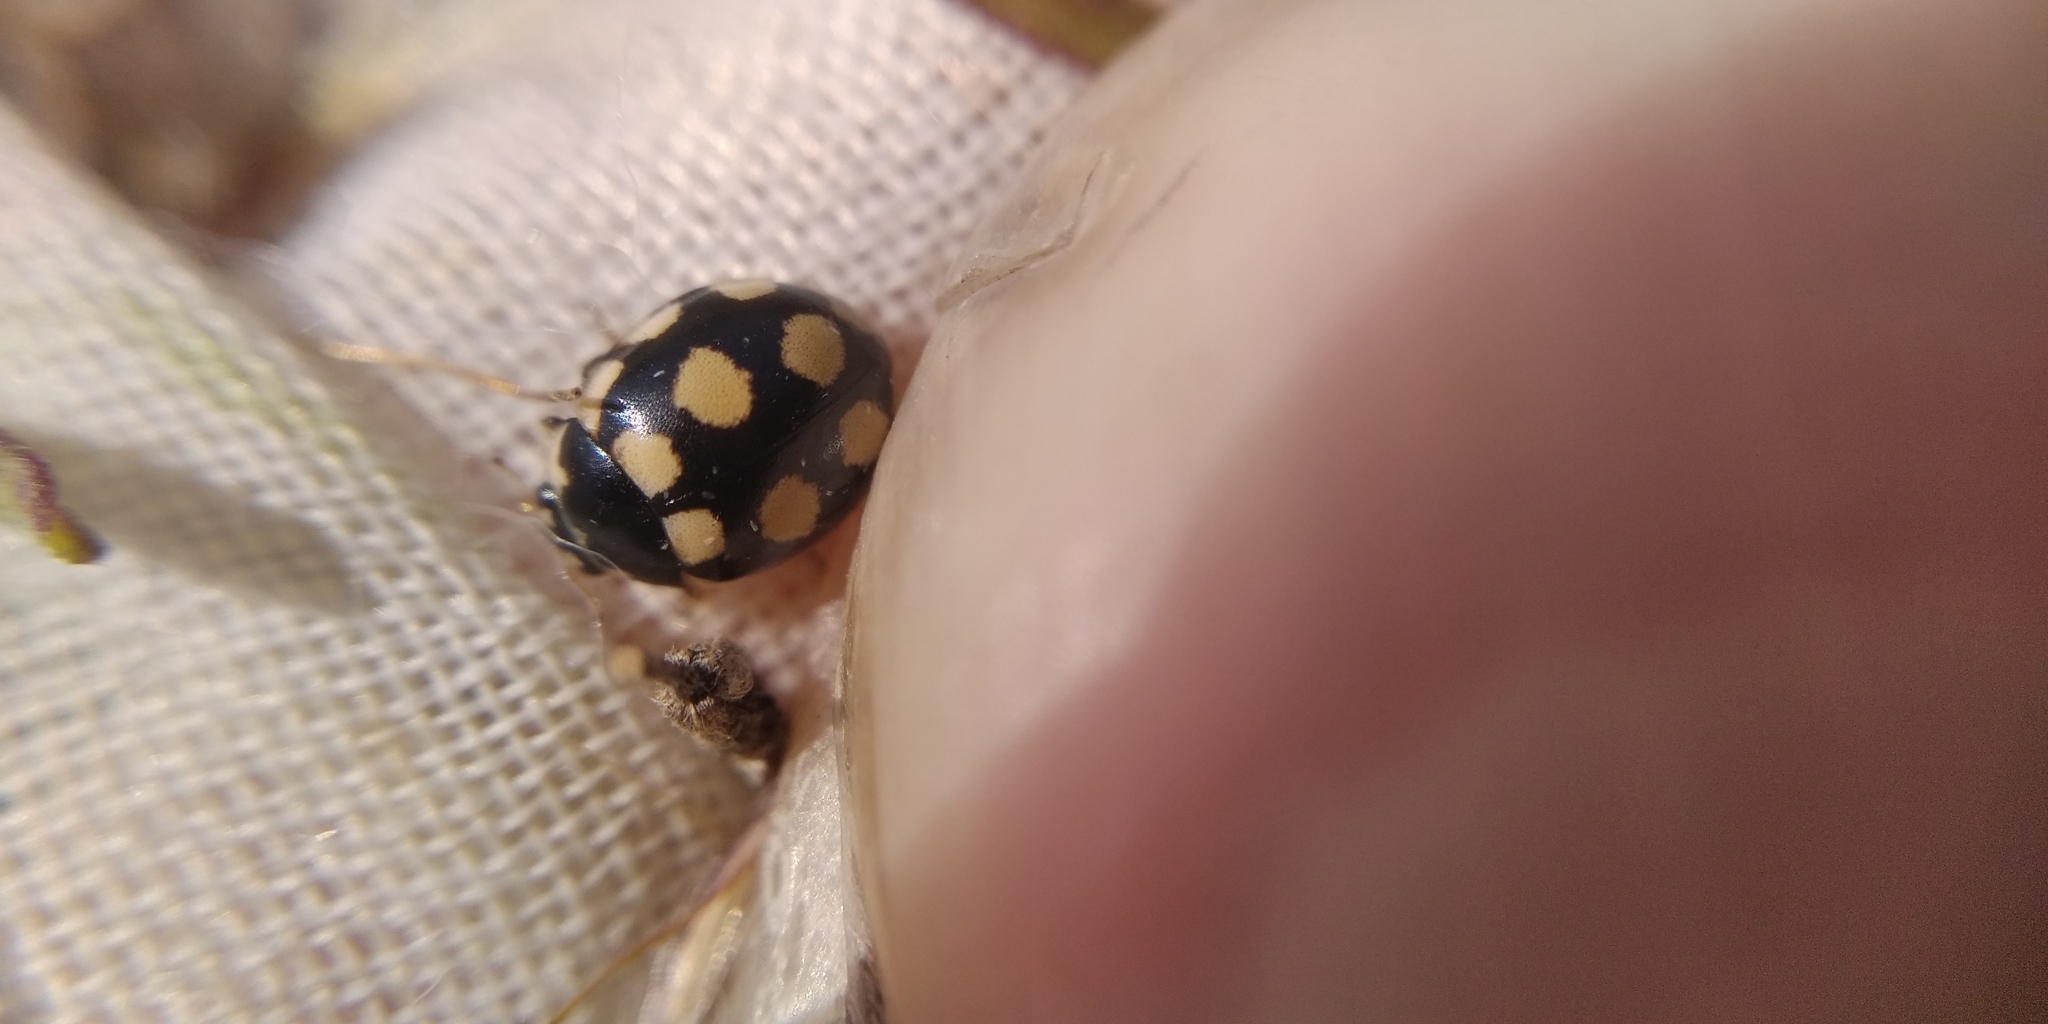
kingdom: Animalia
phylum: Arthropoda
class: Insecta
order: Coleoptera
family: Coccinellidae
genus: Coccinula
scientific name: Coccinula quatuordecimpustulata
